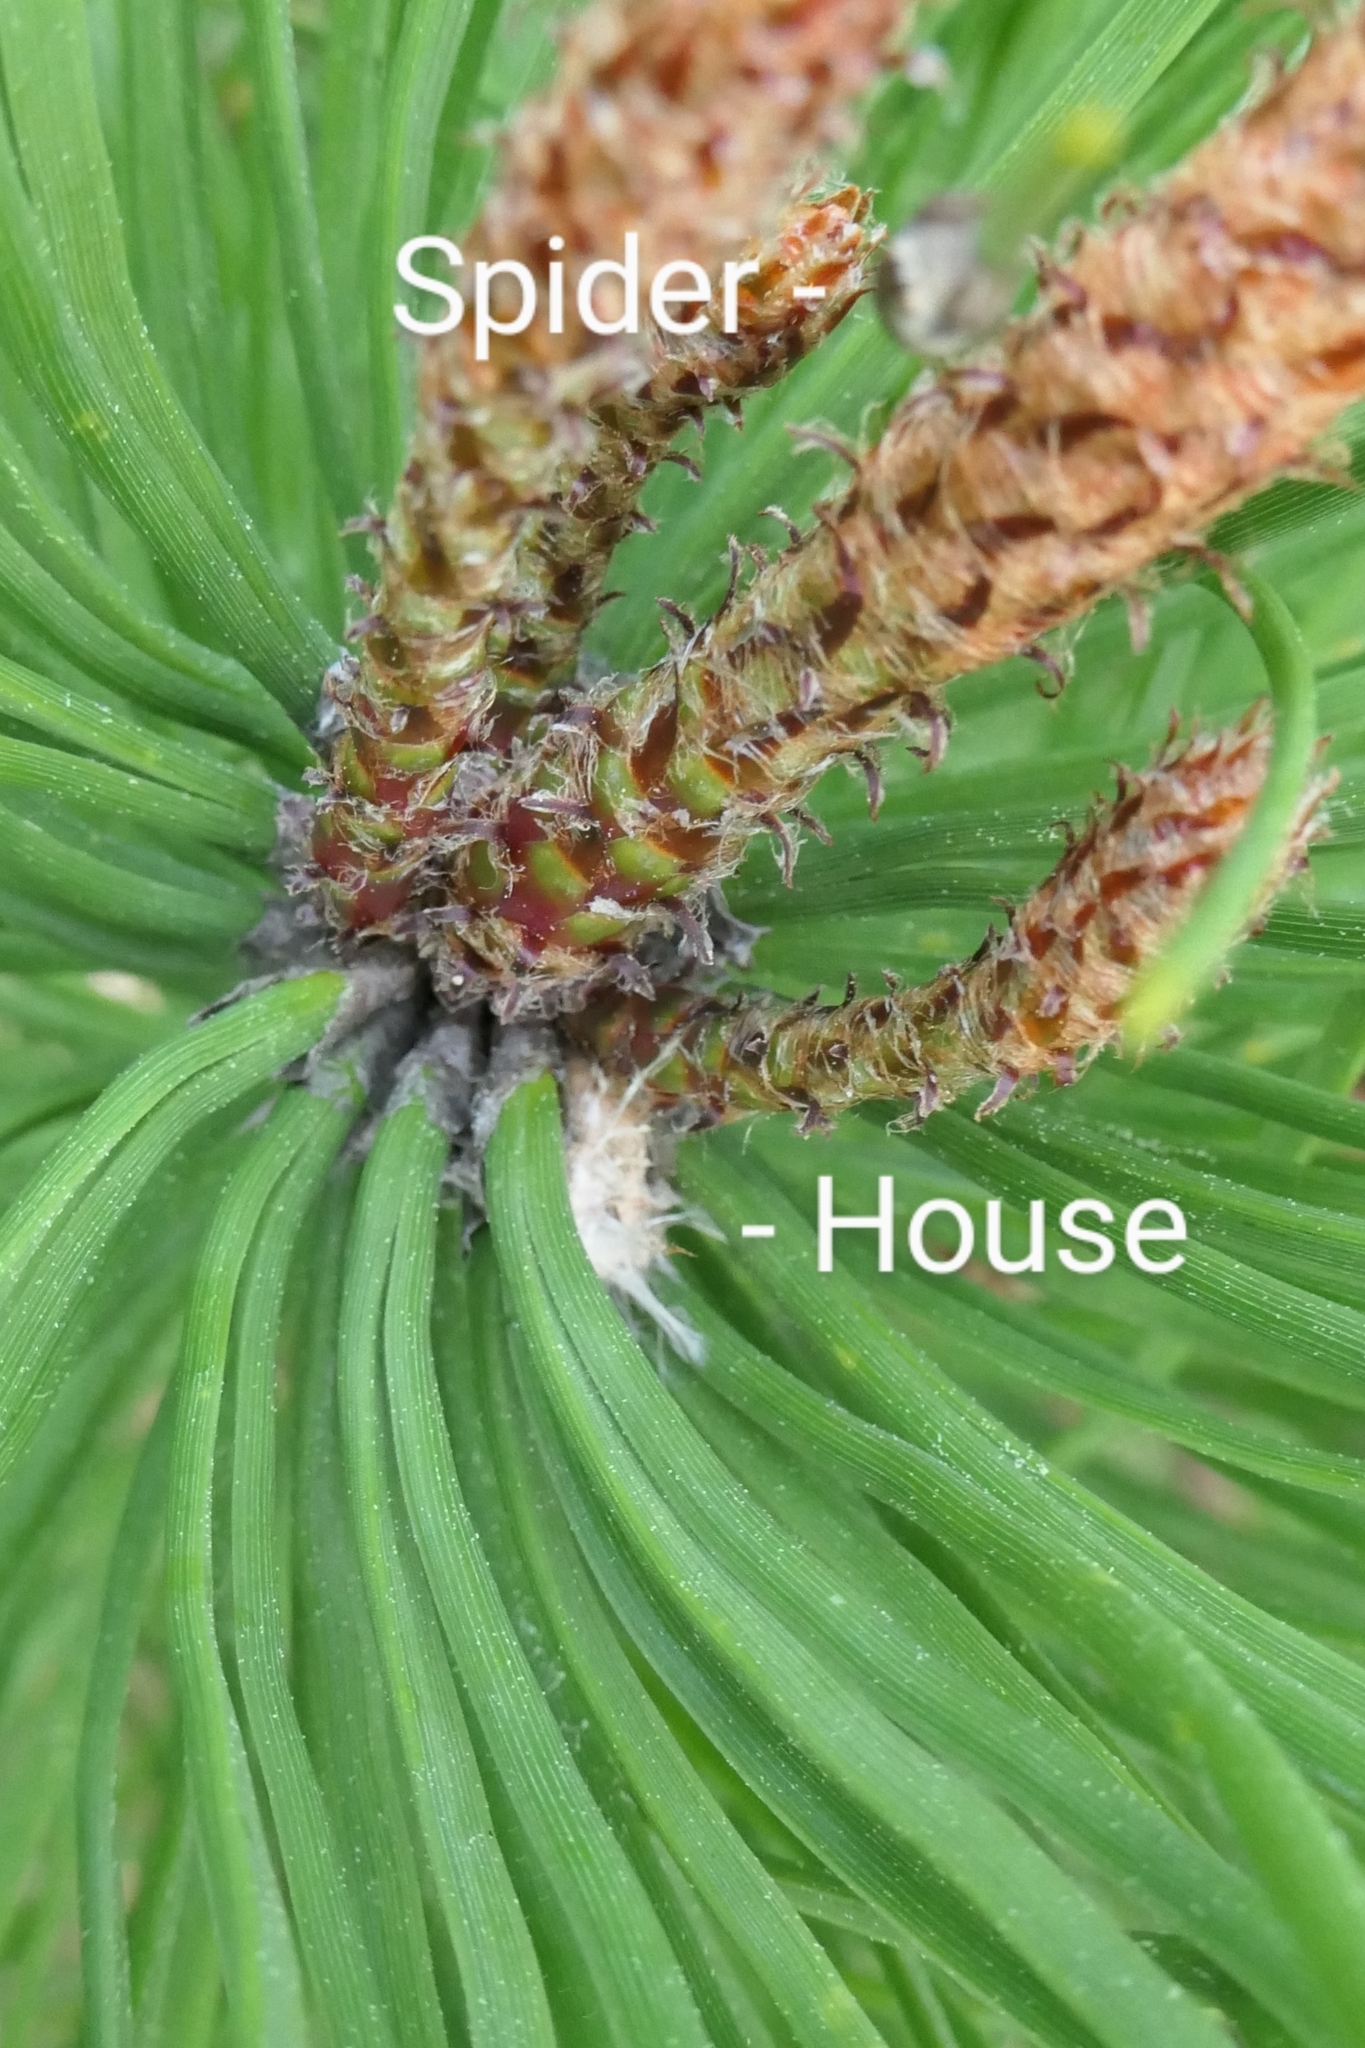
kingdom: Animalia
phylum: Arthropoda
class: Arachnida
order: Araneae
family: Salticidae
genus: Opisthoncus
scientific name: Opisthoncus polyphemus
